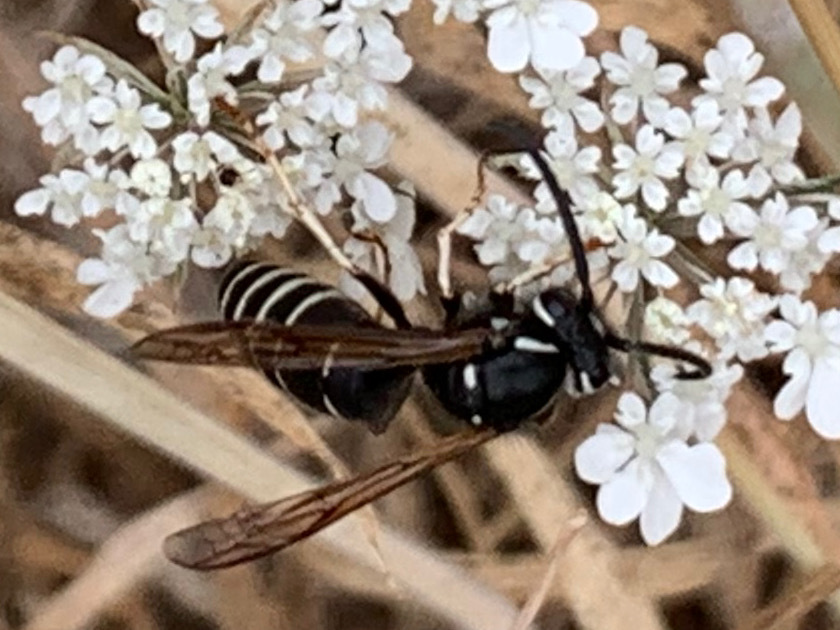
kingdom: Animalia
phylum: Arthropoda
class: Insecta
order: Hymenoptera
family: Vespidae
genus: Vespula
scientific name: Vespula consobrina
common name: Blackjacket
